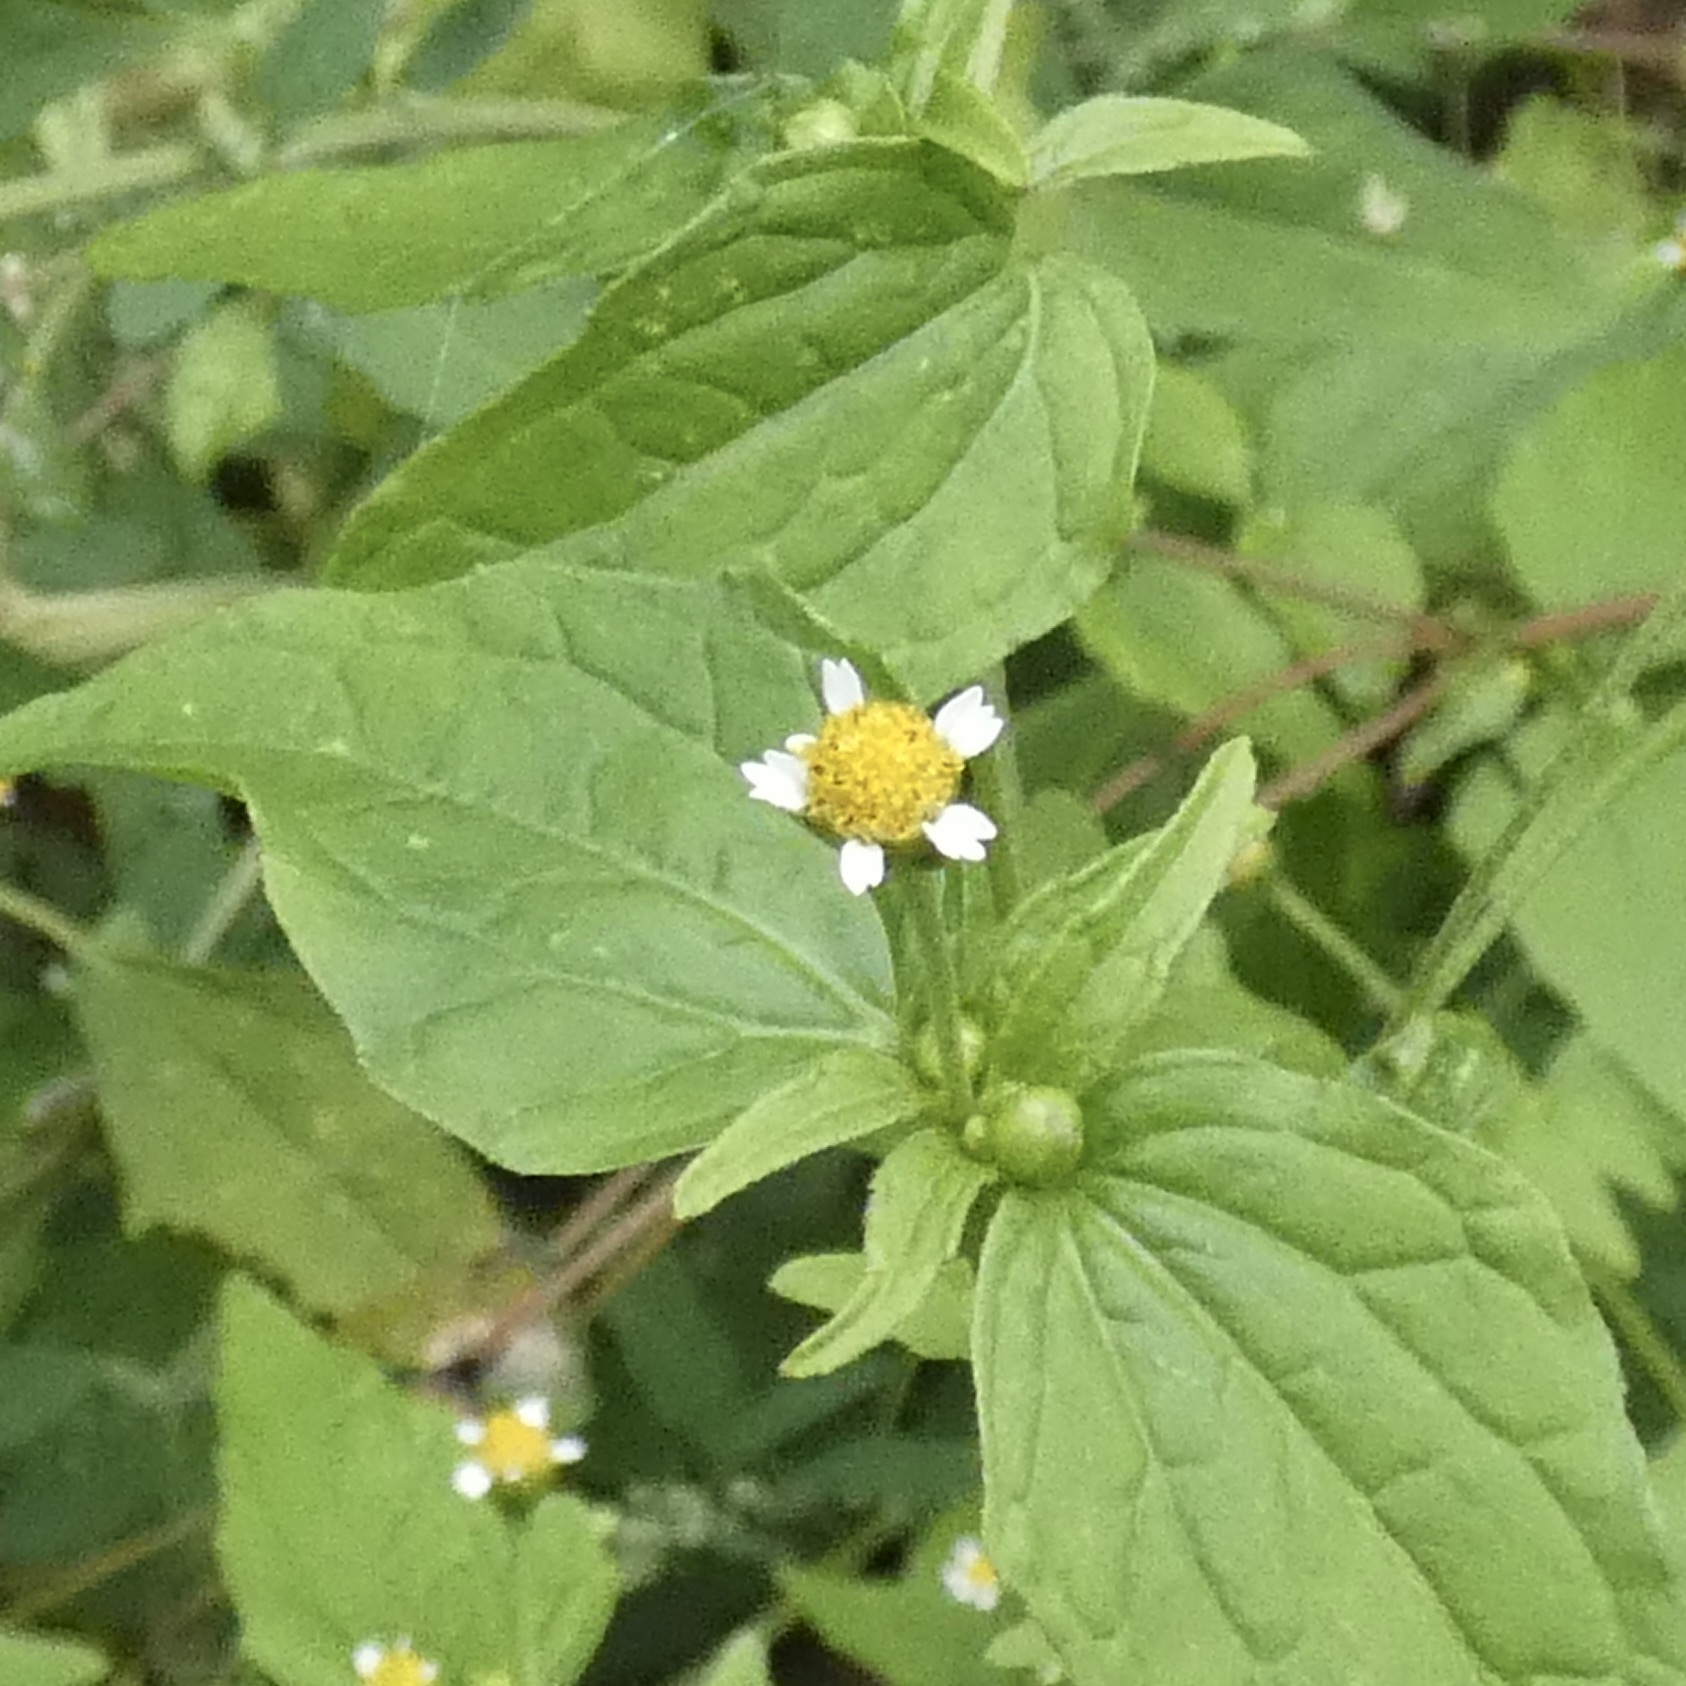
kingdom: Plantae
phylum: Tracheophyta
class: Magnoliopsida
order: Asterales
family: Asteraceae
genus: Galinsoga
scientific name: Galinsoga parviflora
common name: Gallant soldier
